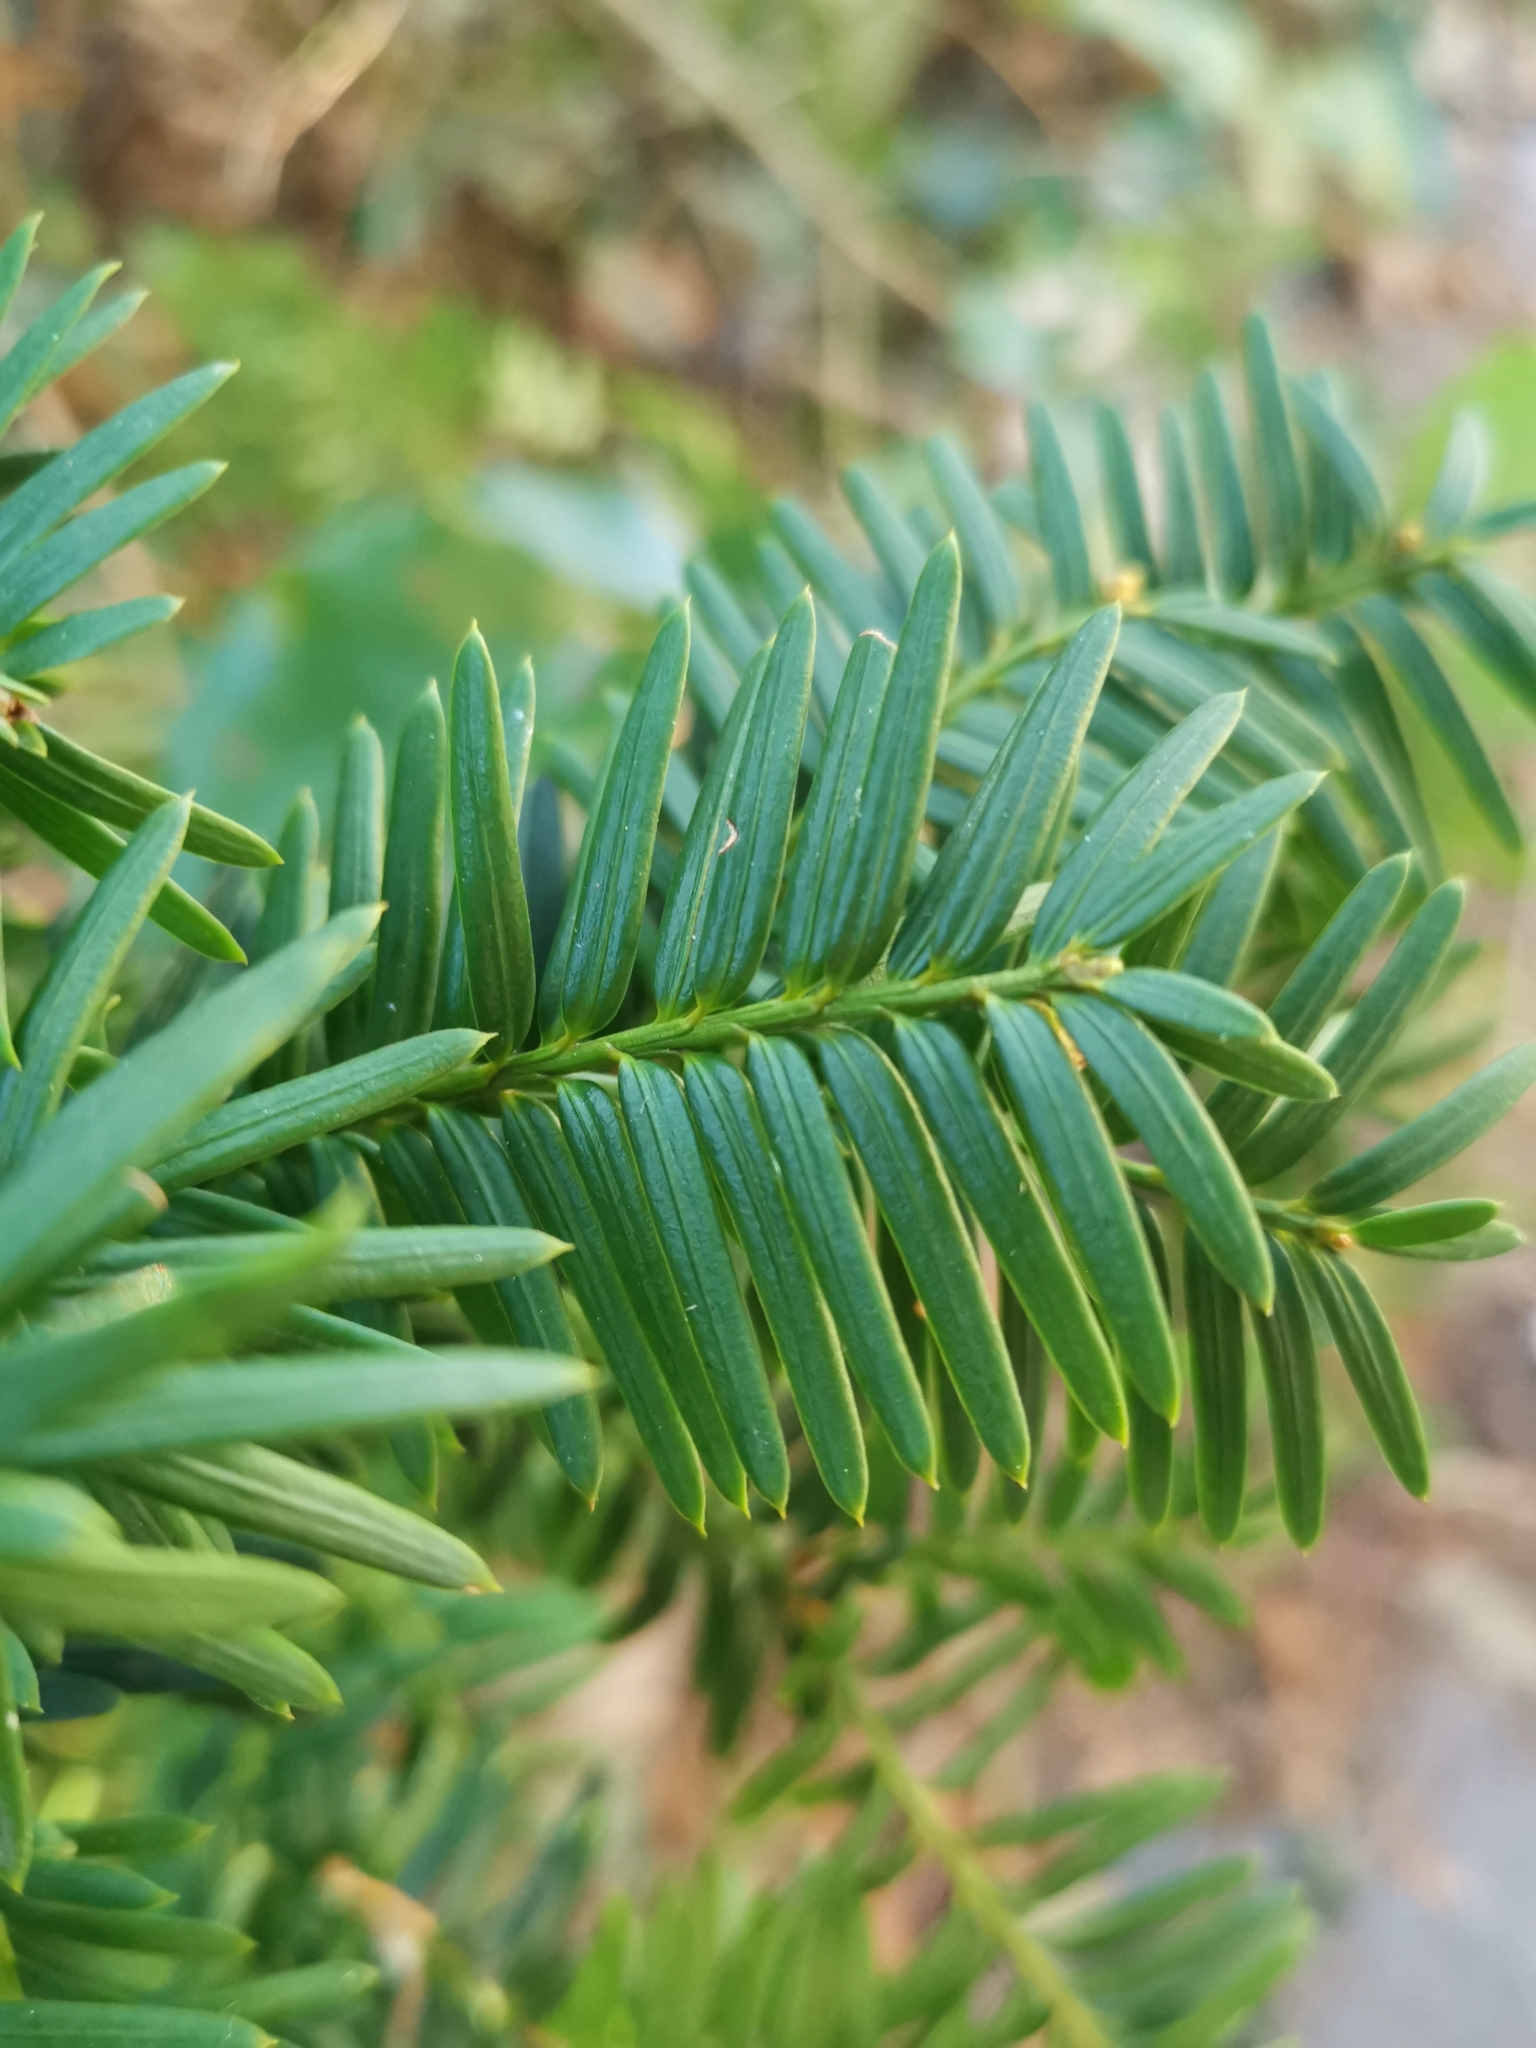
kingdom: Plantae
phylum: Tracheophyta
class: Pinopsida
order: Pinales
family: Taxaceae
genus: Taxus
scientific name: Taxus baccata
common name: Yew
